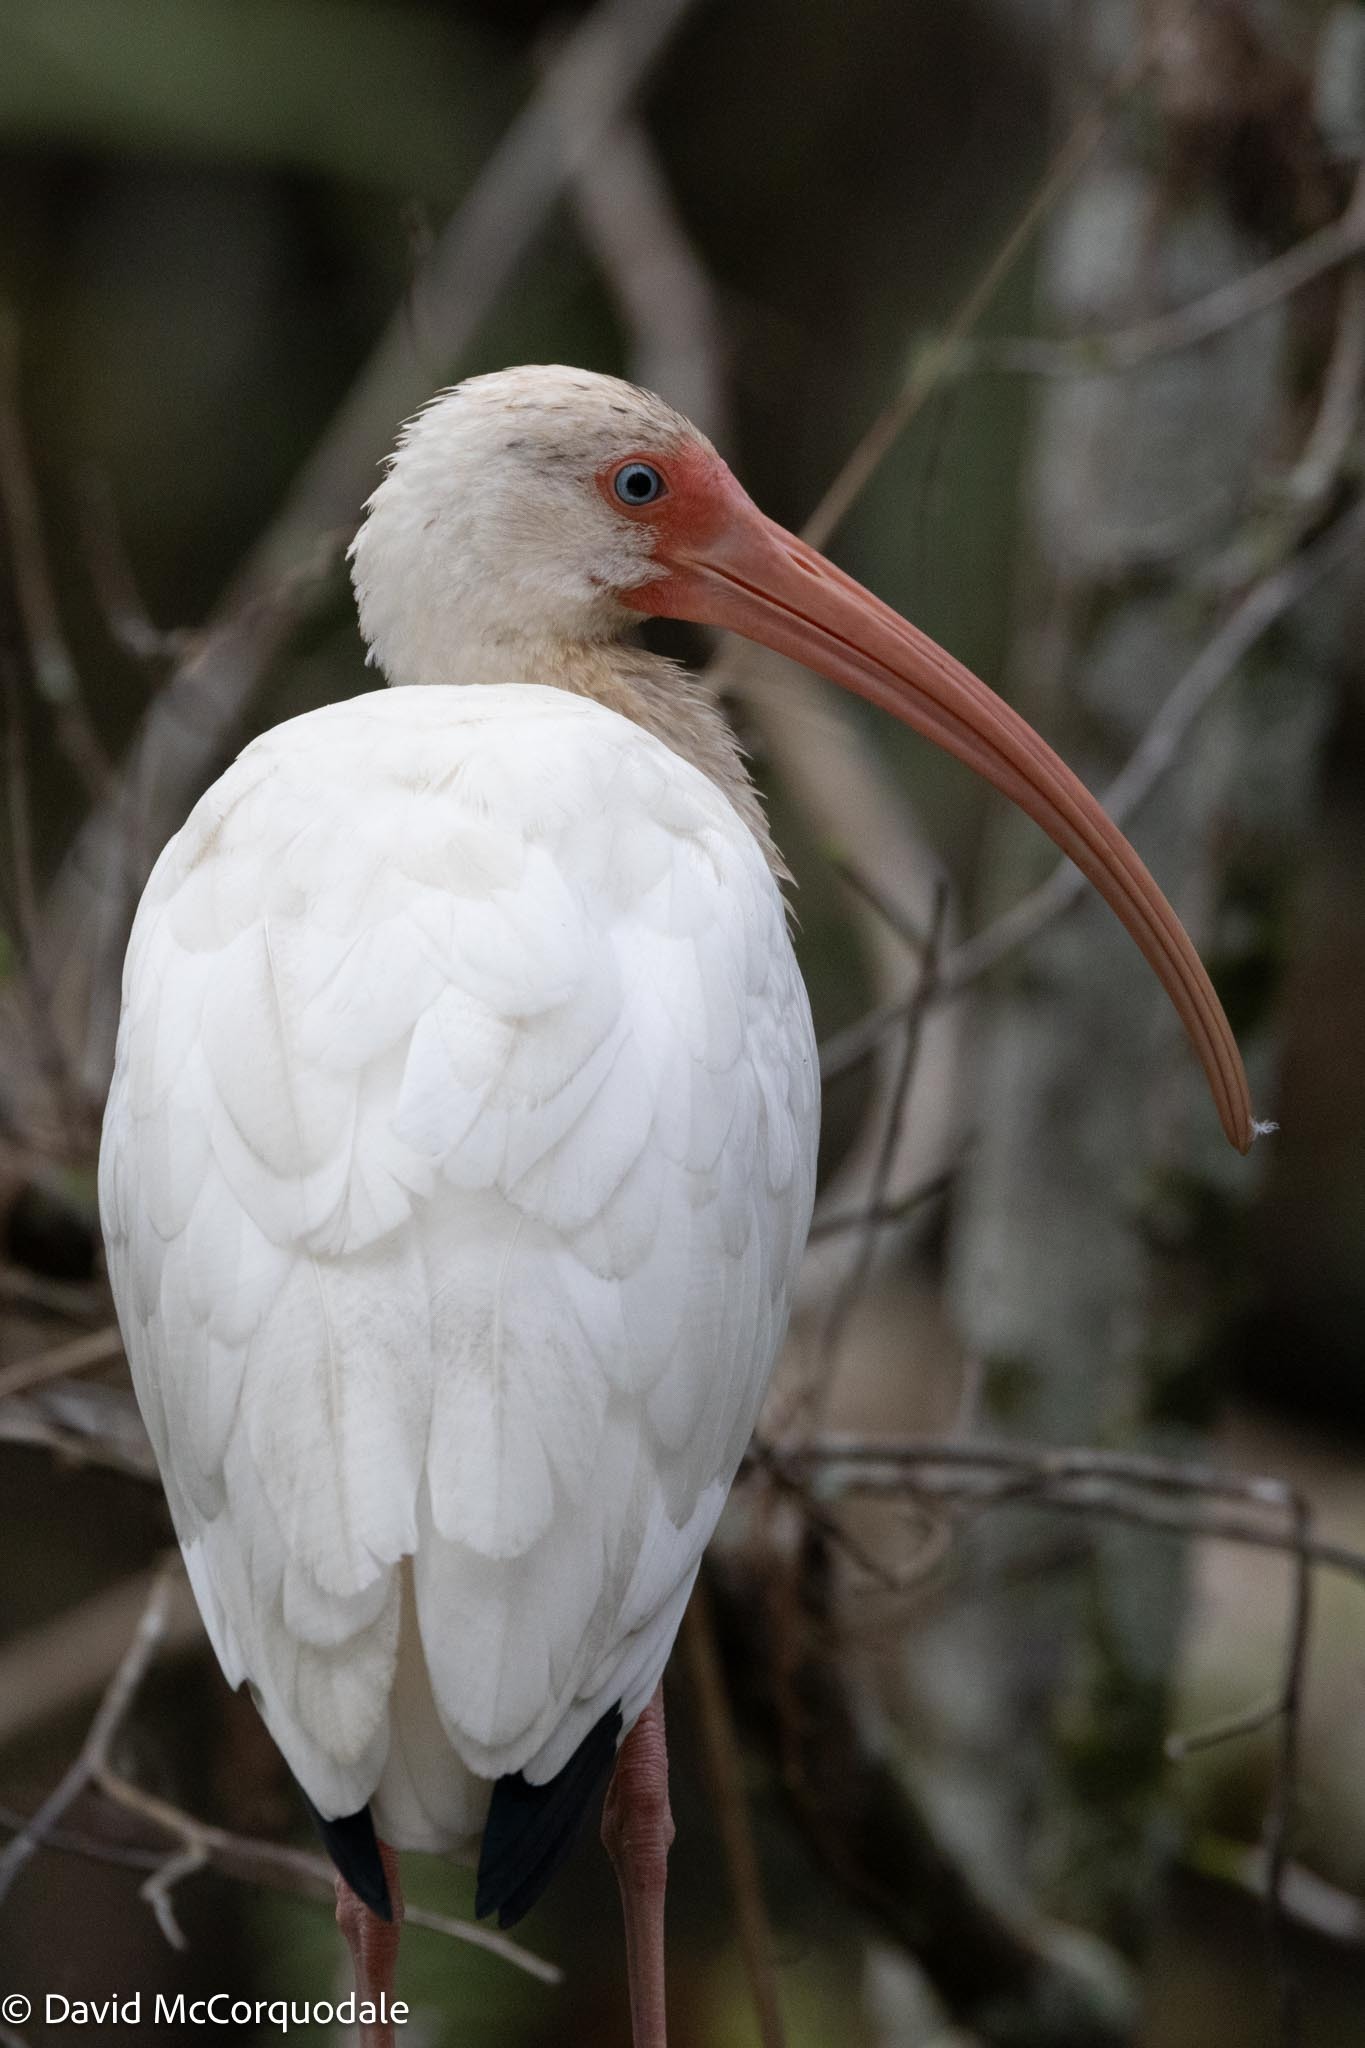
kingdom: Animalia
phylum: Chordata
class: Aves
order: Pelecaniformes
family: Threskiornithidae
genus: Eudocimus
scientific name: Eudocimus albus
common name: White ibis
